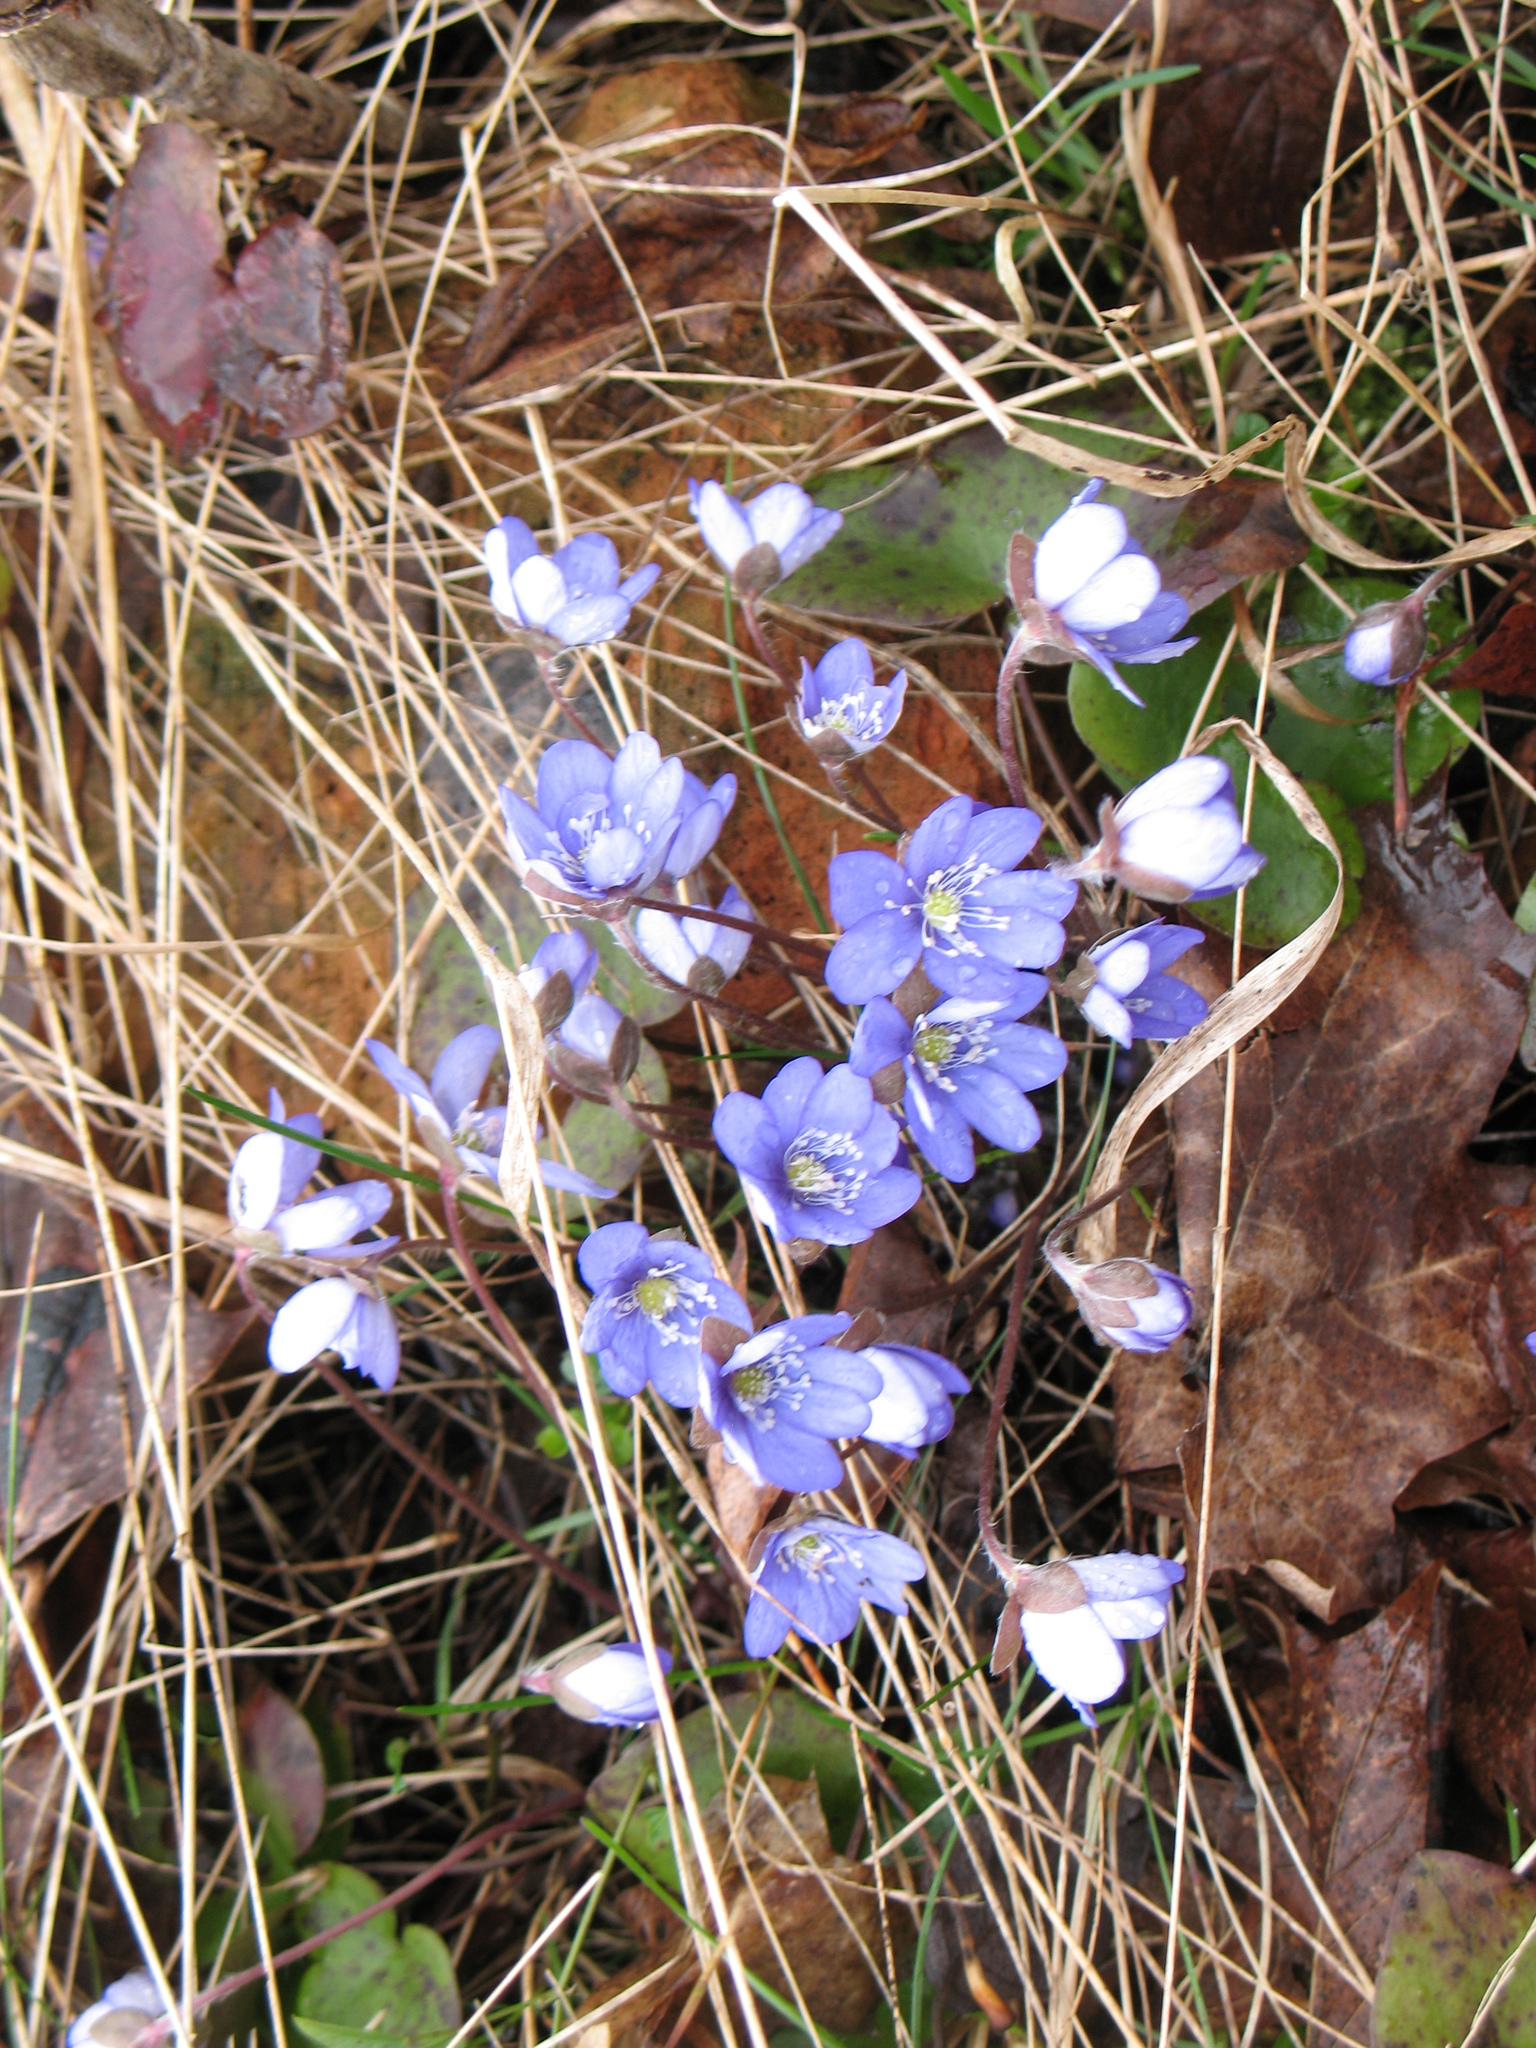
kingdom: Plantae
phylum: Tracheophyta
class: Magnoliopsida
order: Ranunculales
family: Ranunculaceae
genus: Hepatica
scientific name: Hepatica nobilis
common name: Liverleaf
